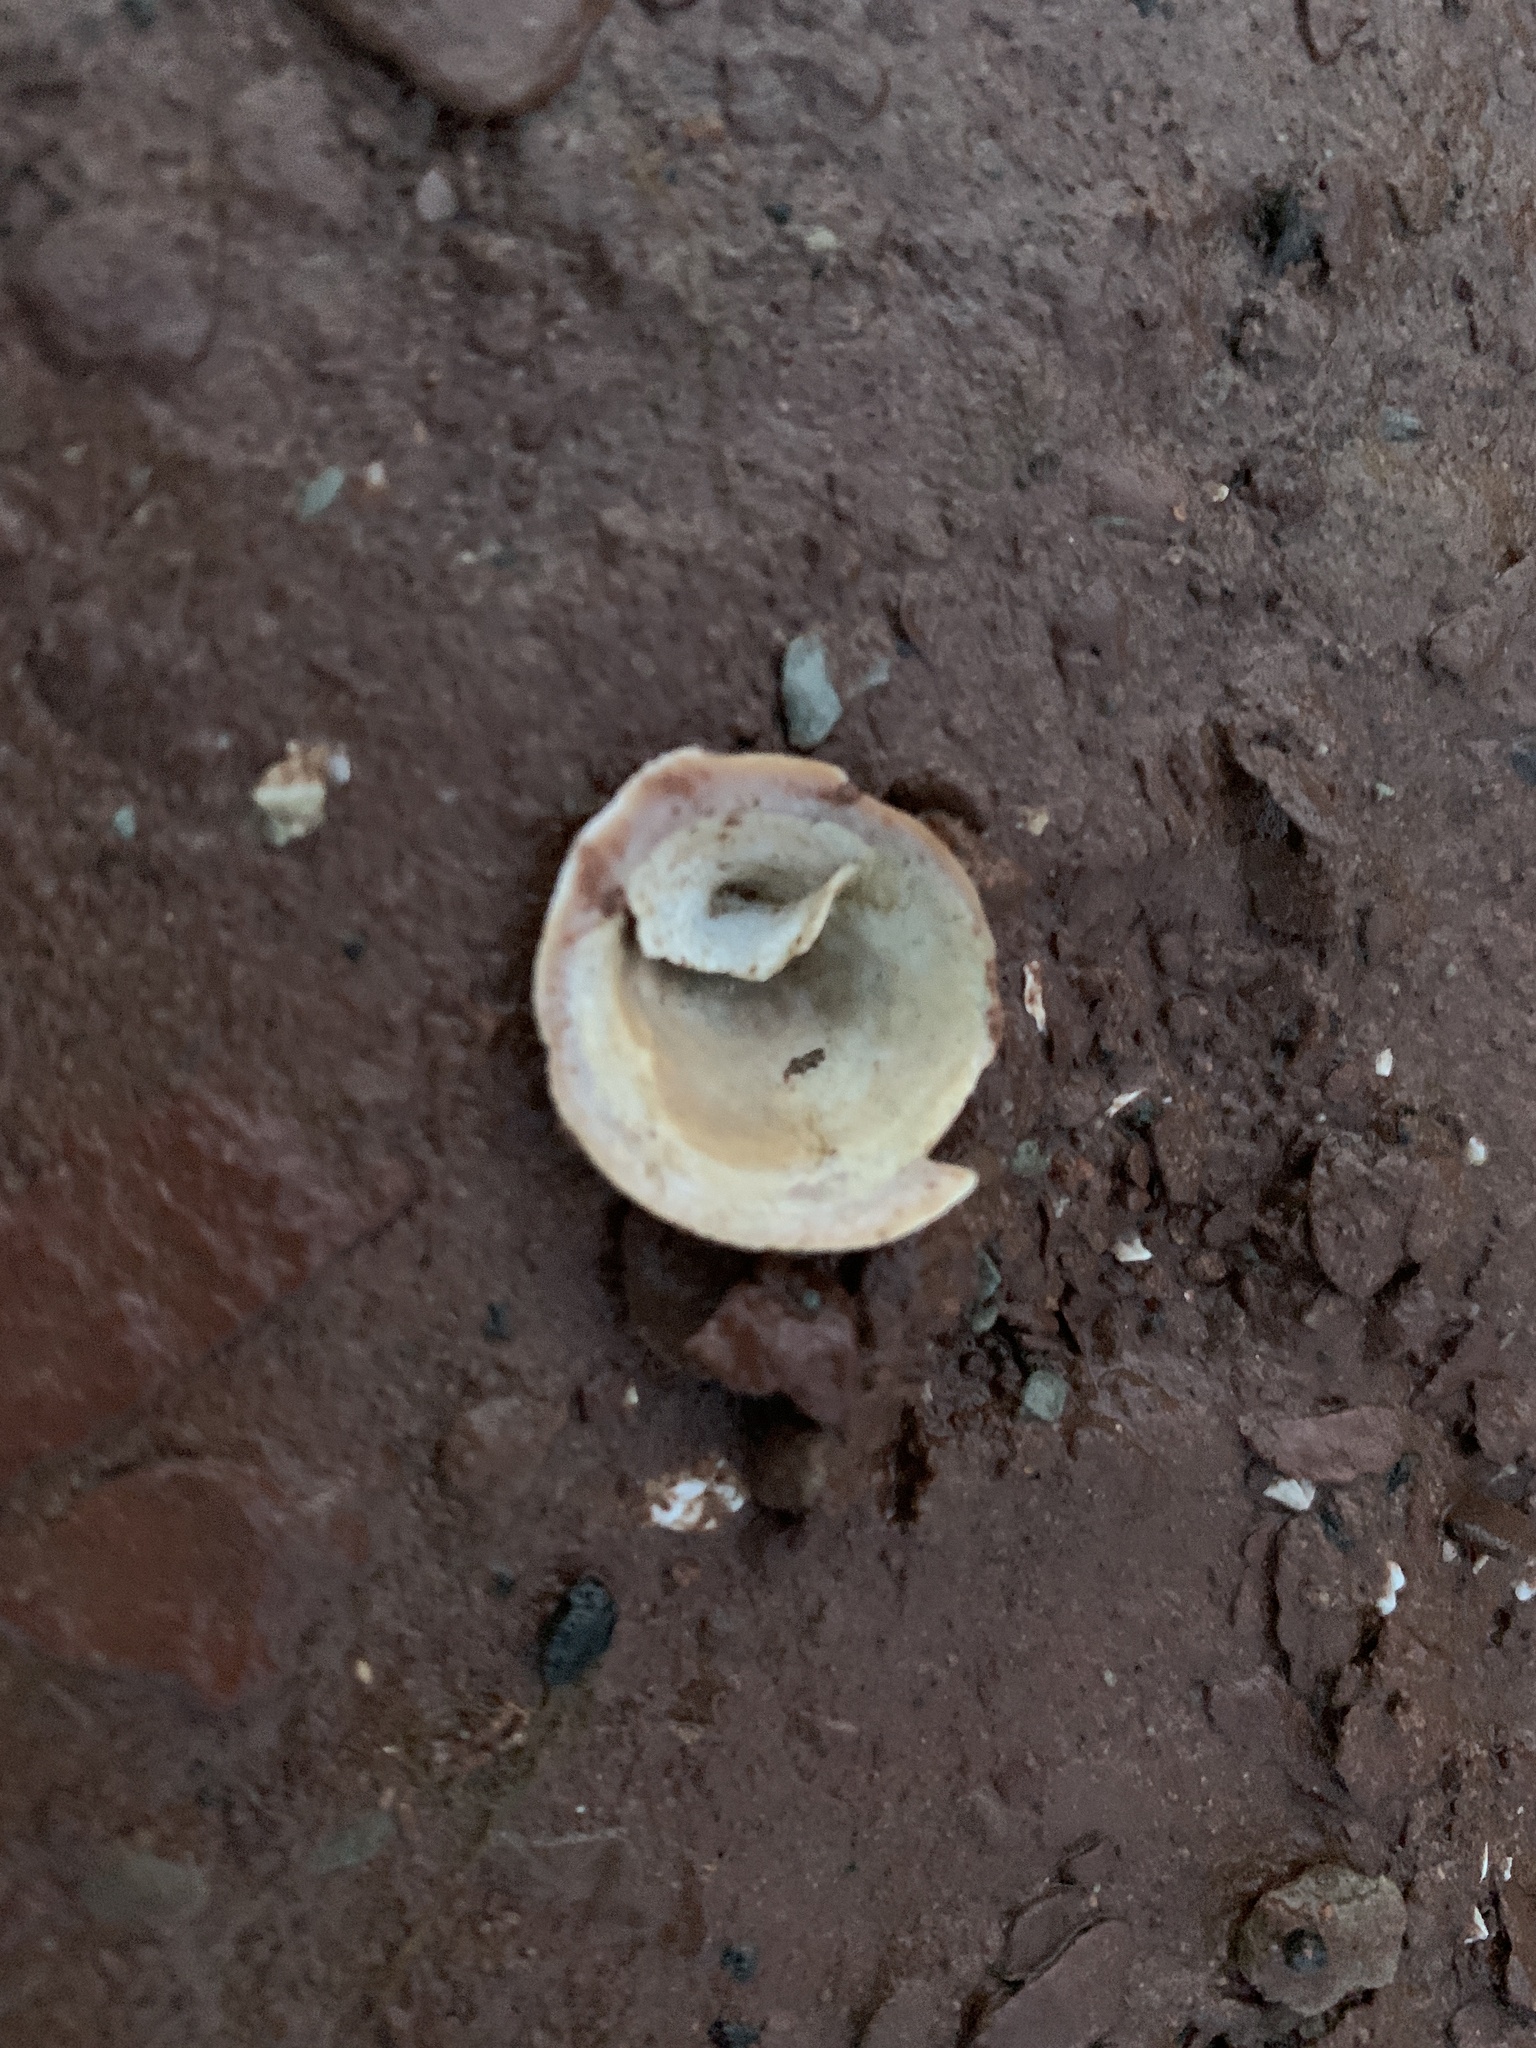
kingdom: Animalia
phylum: Mollusca
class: Gastropoda
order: Littorinimorpha
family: Calyptraeidae
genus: Crucibulum
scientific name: Crucibulum striatum
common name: Striate cup-and -saucer
